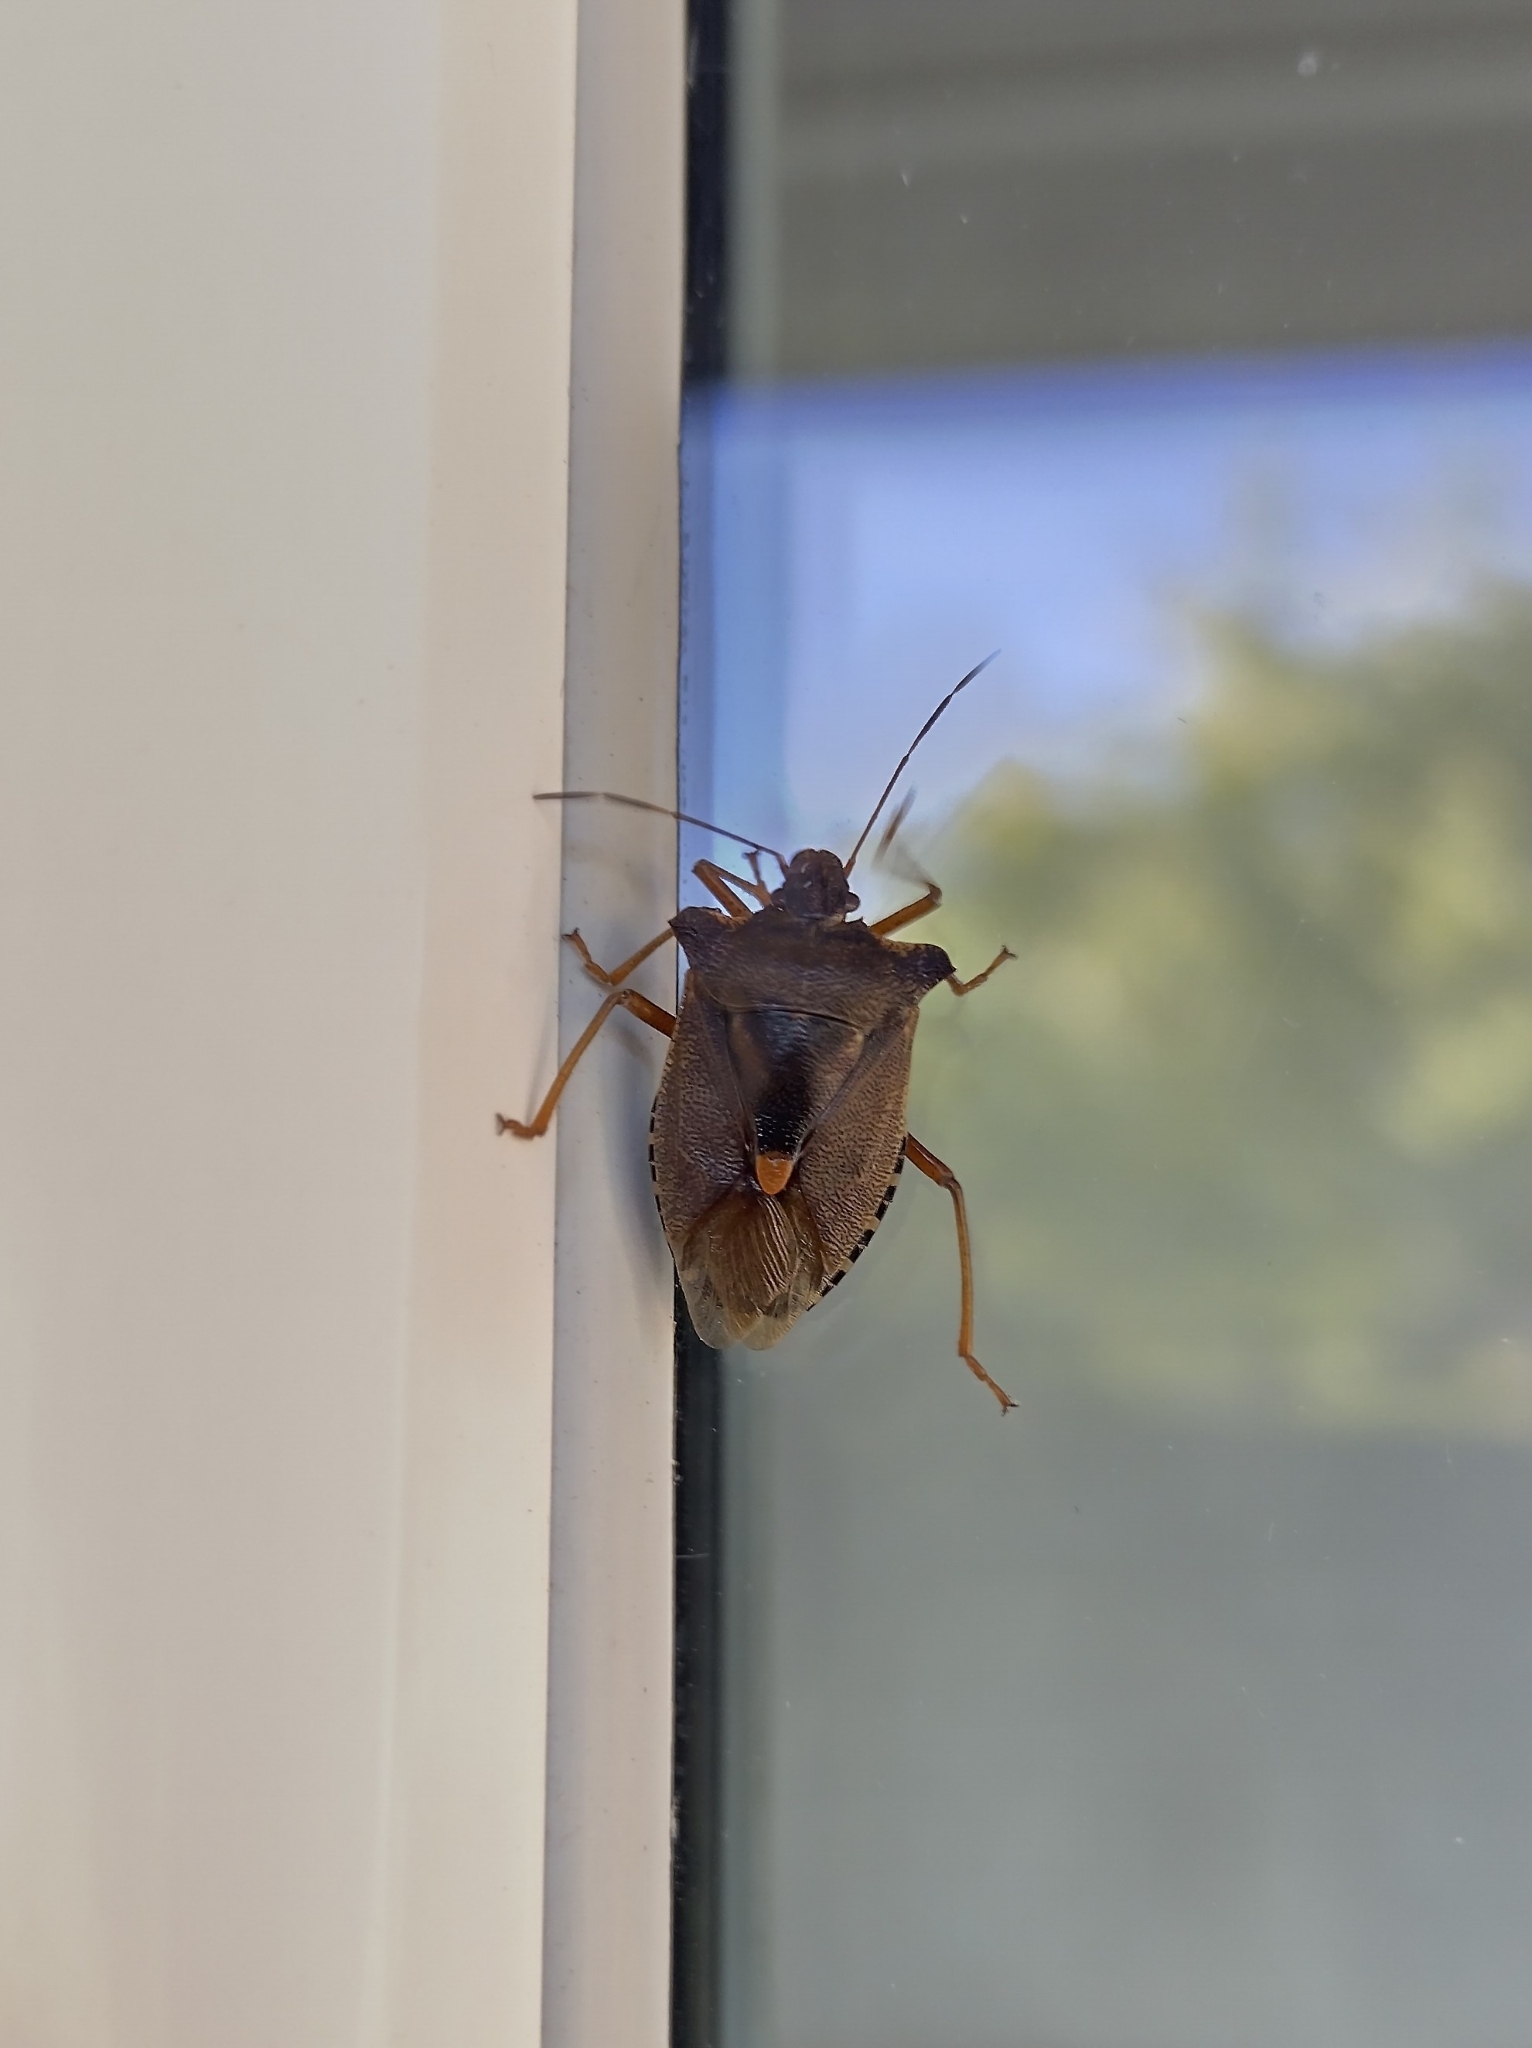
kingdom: Animalia
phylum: Arthropoda
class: Insecta
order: Hemiptera
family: Pentatomidae
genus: Pentatoma
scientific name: Pentatoma rufipes
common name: Forest bug
